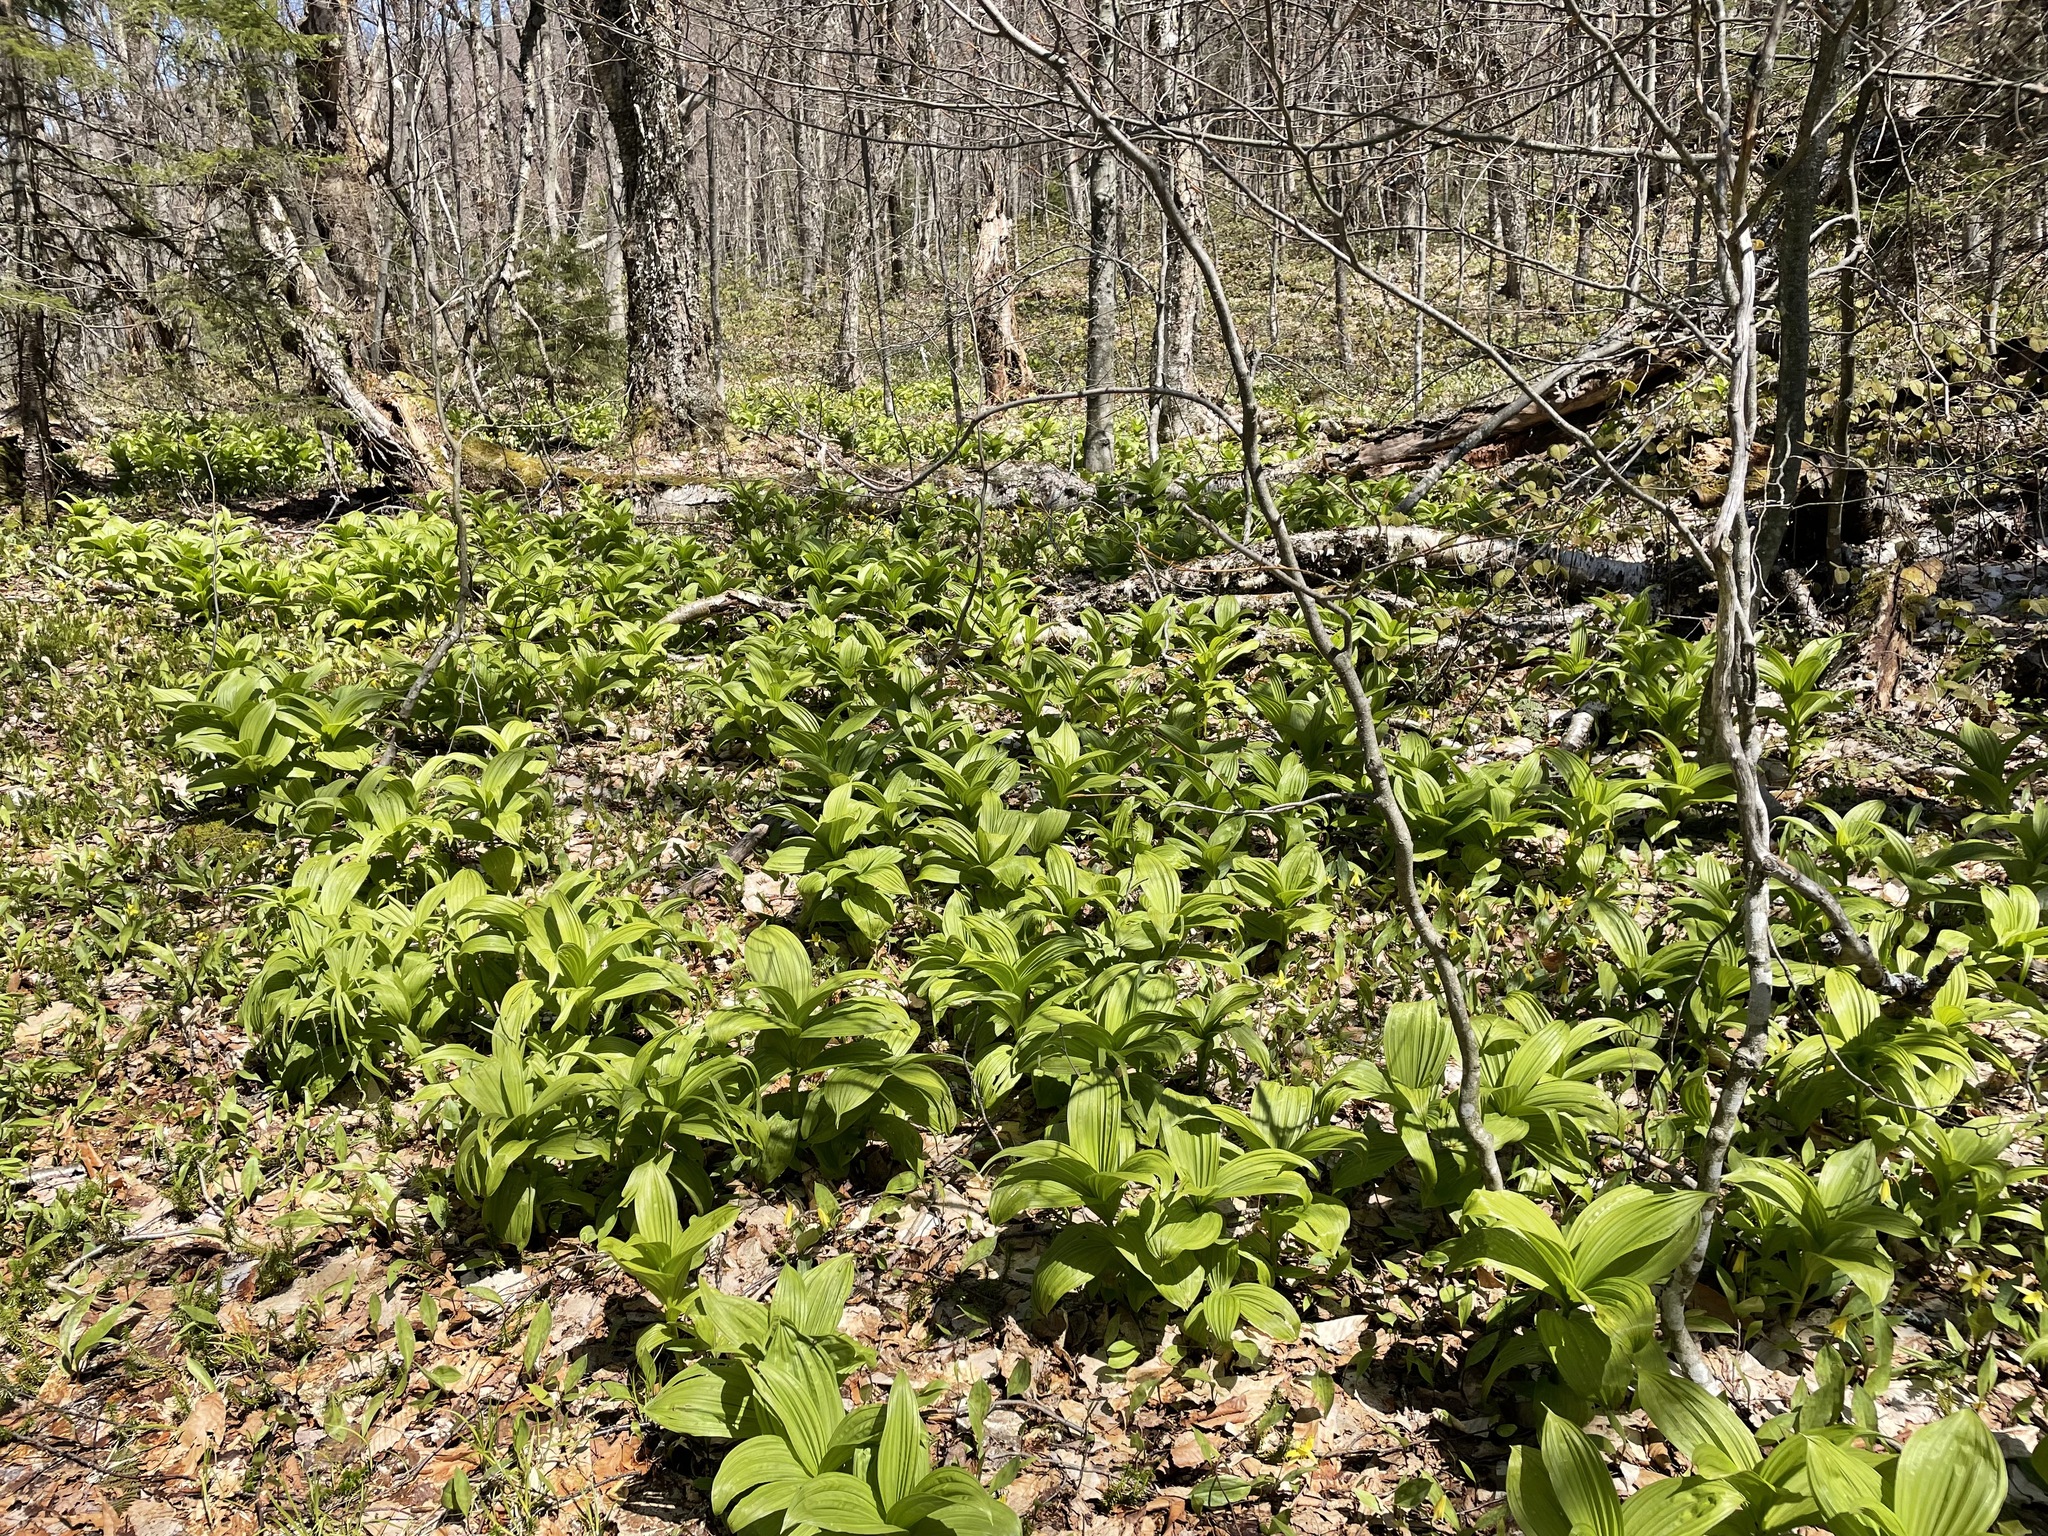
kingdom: Plantae
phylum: Tracheophyta
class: Liliopsida
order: Liliales
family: Melanthiaceae
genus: Veratrum
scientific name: Veratrum viride
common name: American false hellebore
